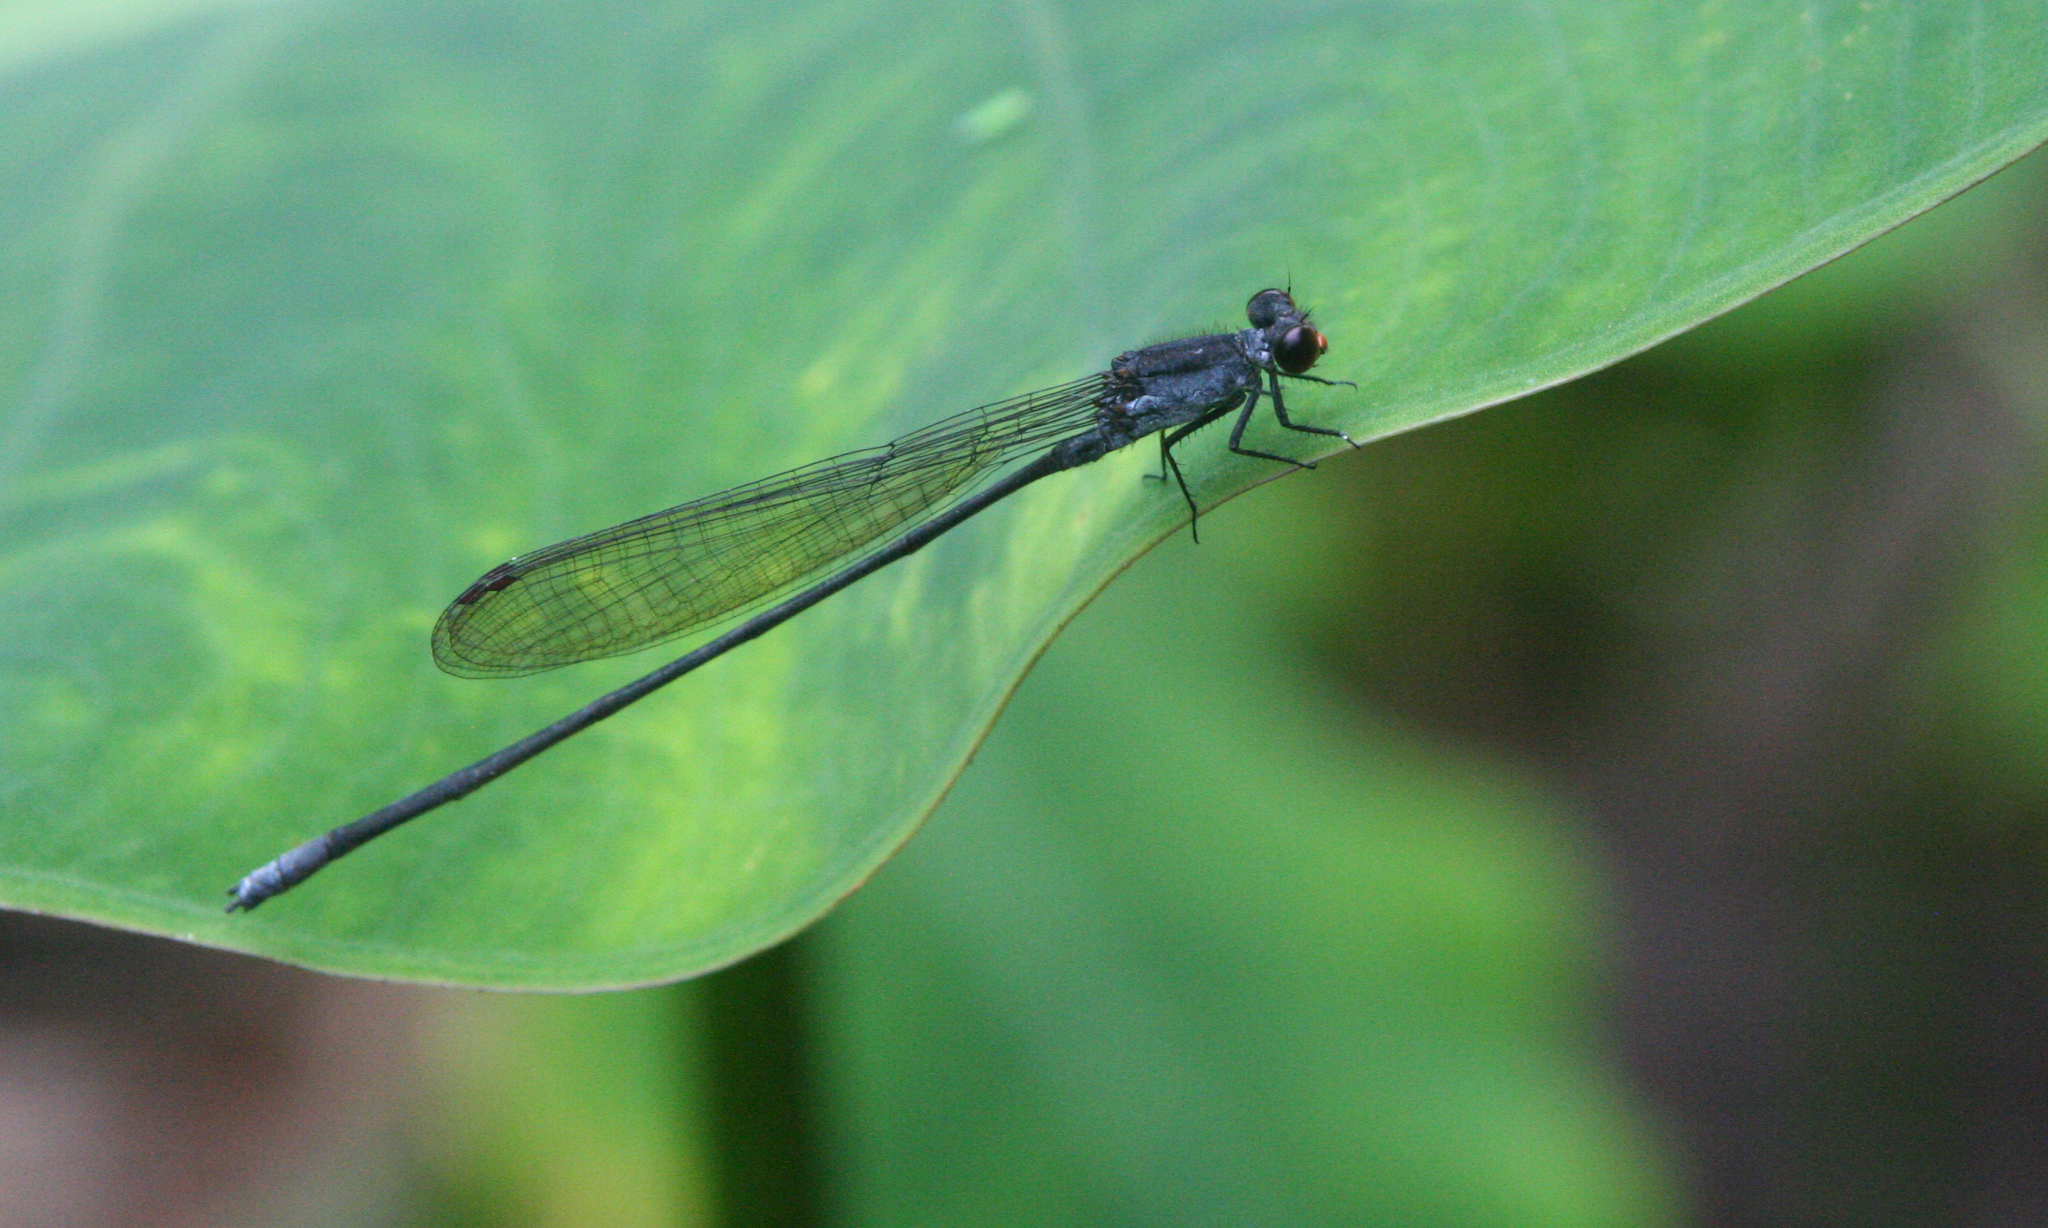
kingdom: Animalia
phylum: Arthropoda
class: Insecta
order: Odonata
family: Coenagrionidae
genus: Pseudagrion
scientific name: Pseudagrion pruinosum
